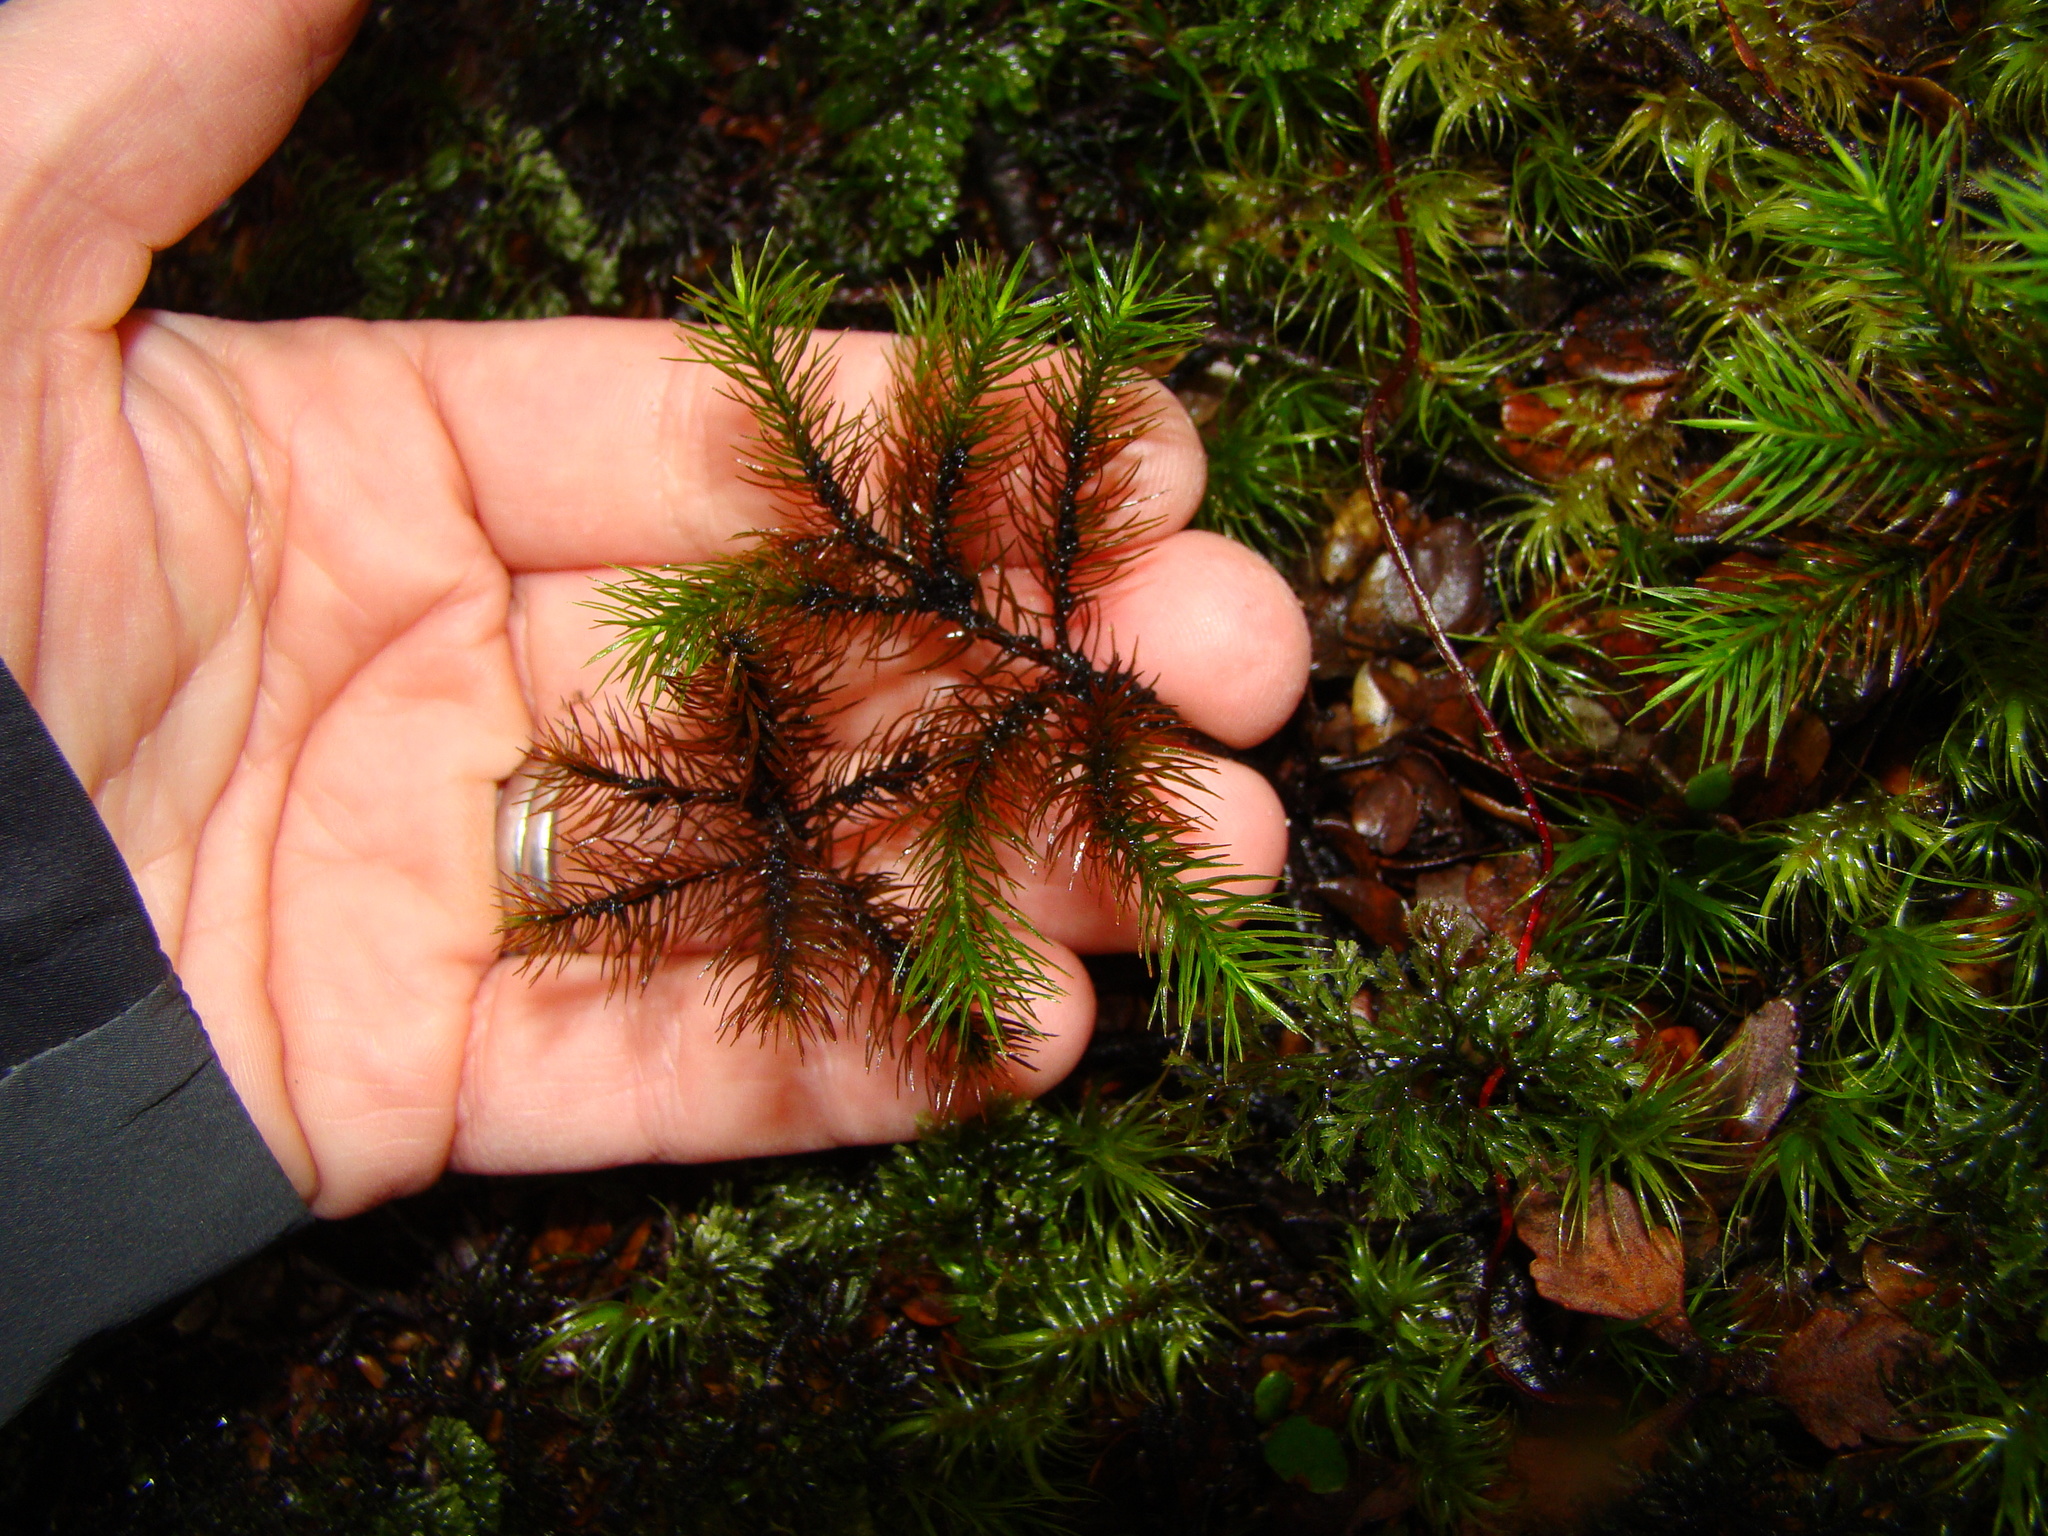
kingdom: Plantae
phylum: Bryophyta
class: Polytrichopsida
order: Polytrichales
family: Polytrichaceae
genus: Dendroligotrichum
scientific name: Dendroligotrichum tongariroense
